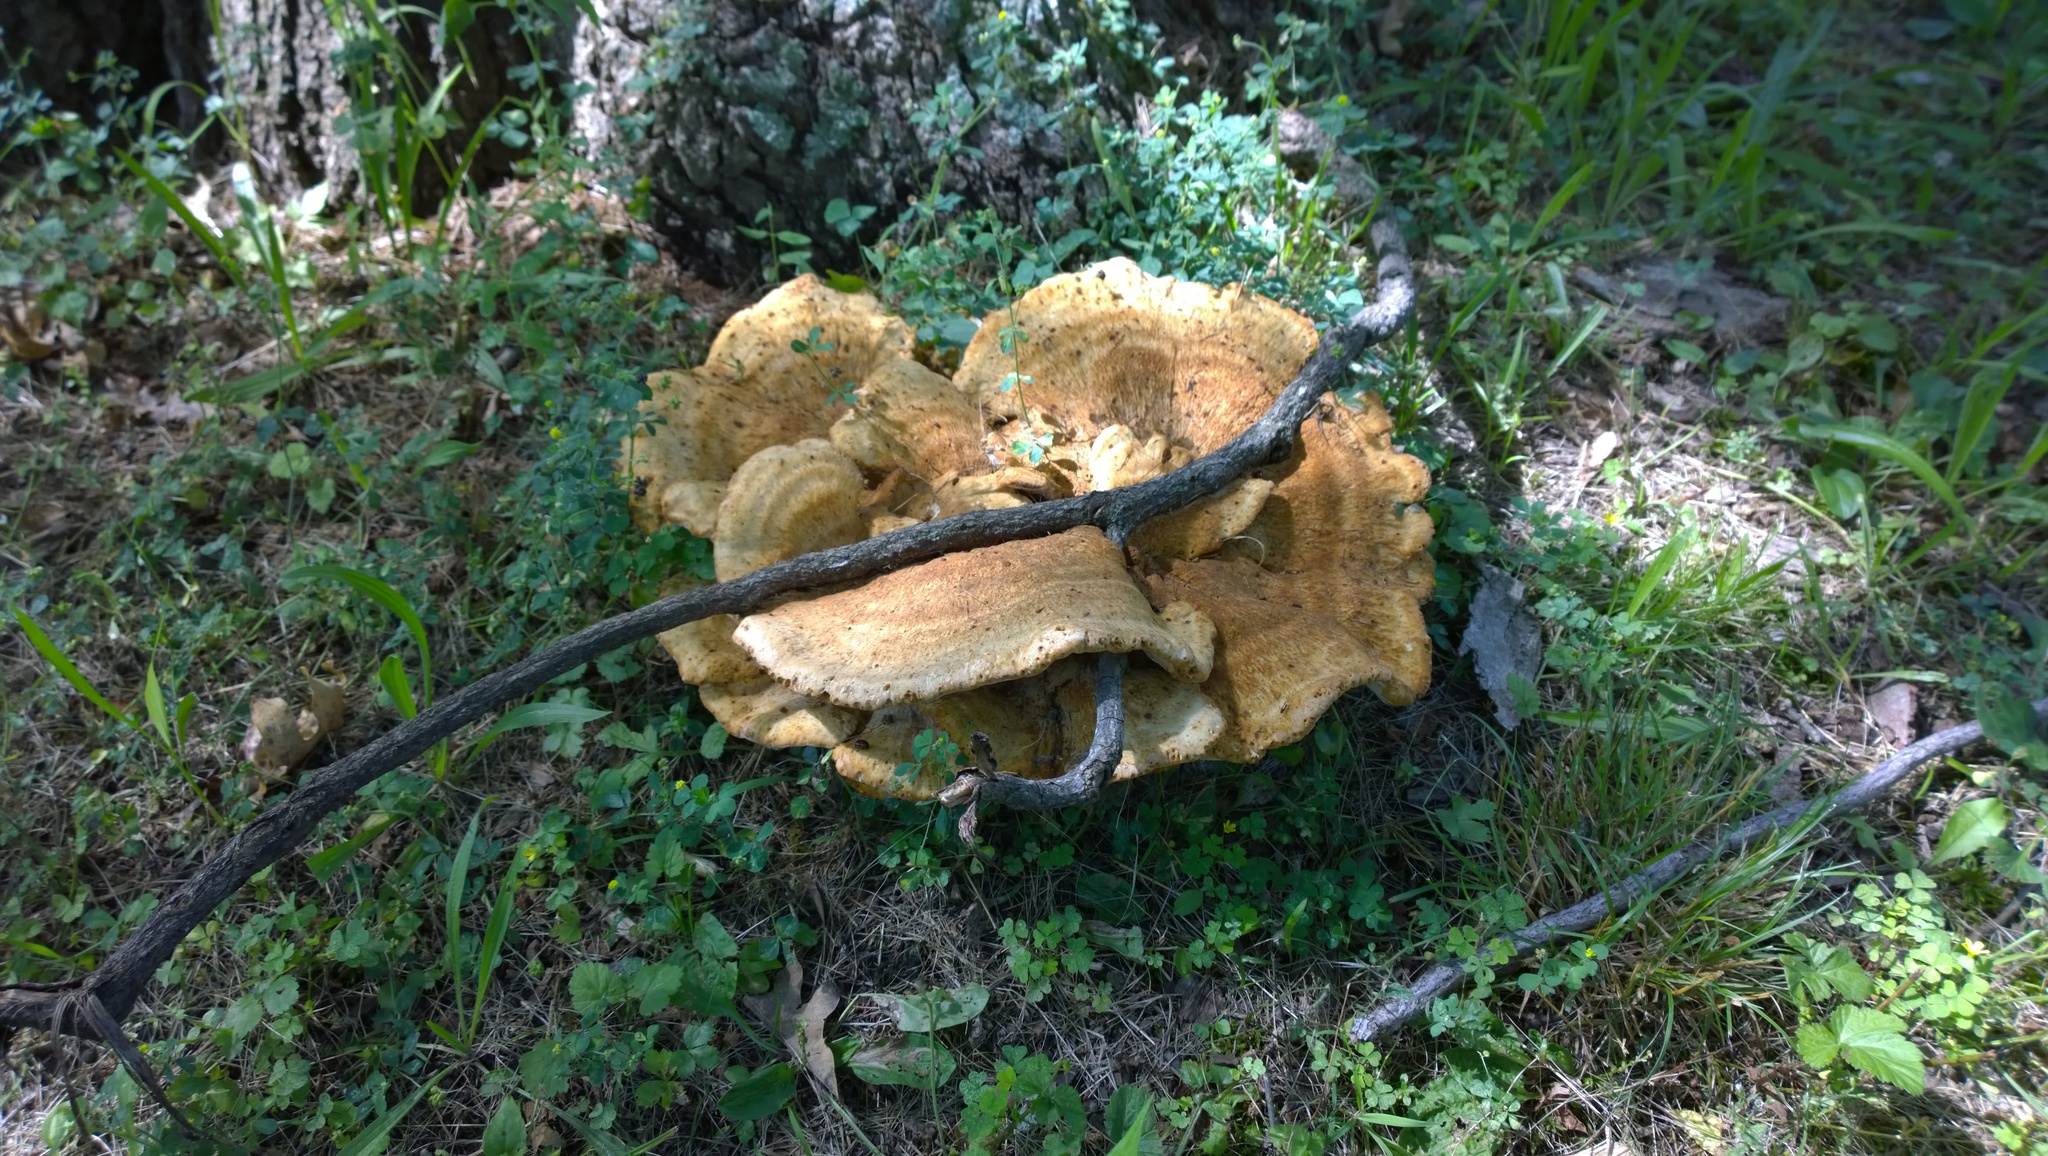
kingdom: Fungi
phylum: Basidiomycota
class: Agaricomycetes
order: Russulales
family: Bondarzewiaceae
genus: Bondarzewia
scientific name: Bondarzewia berkeleyi
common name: Berkeley's polypore
